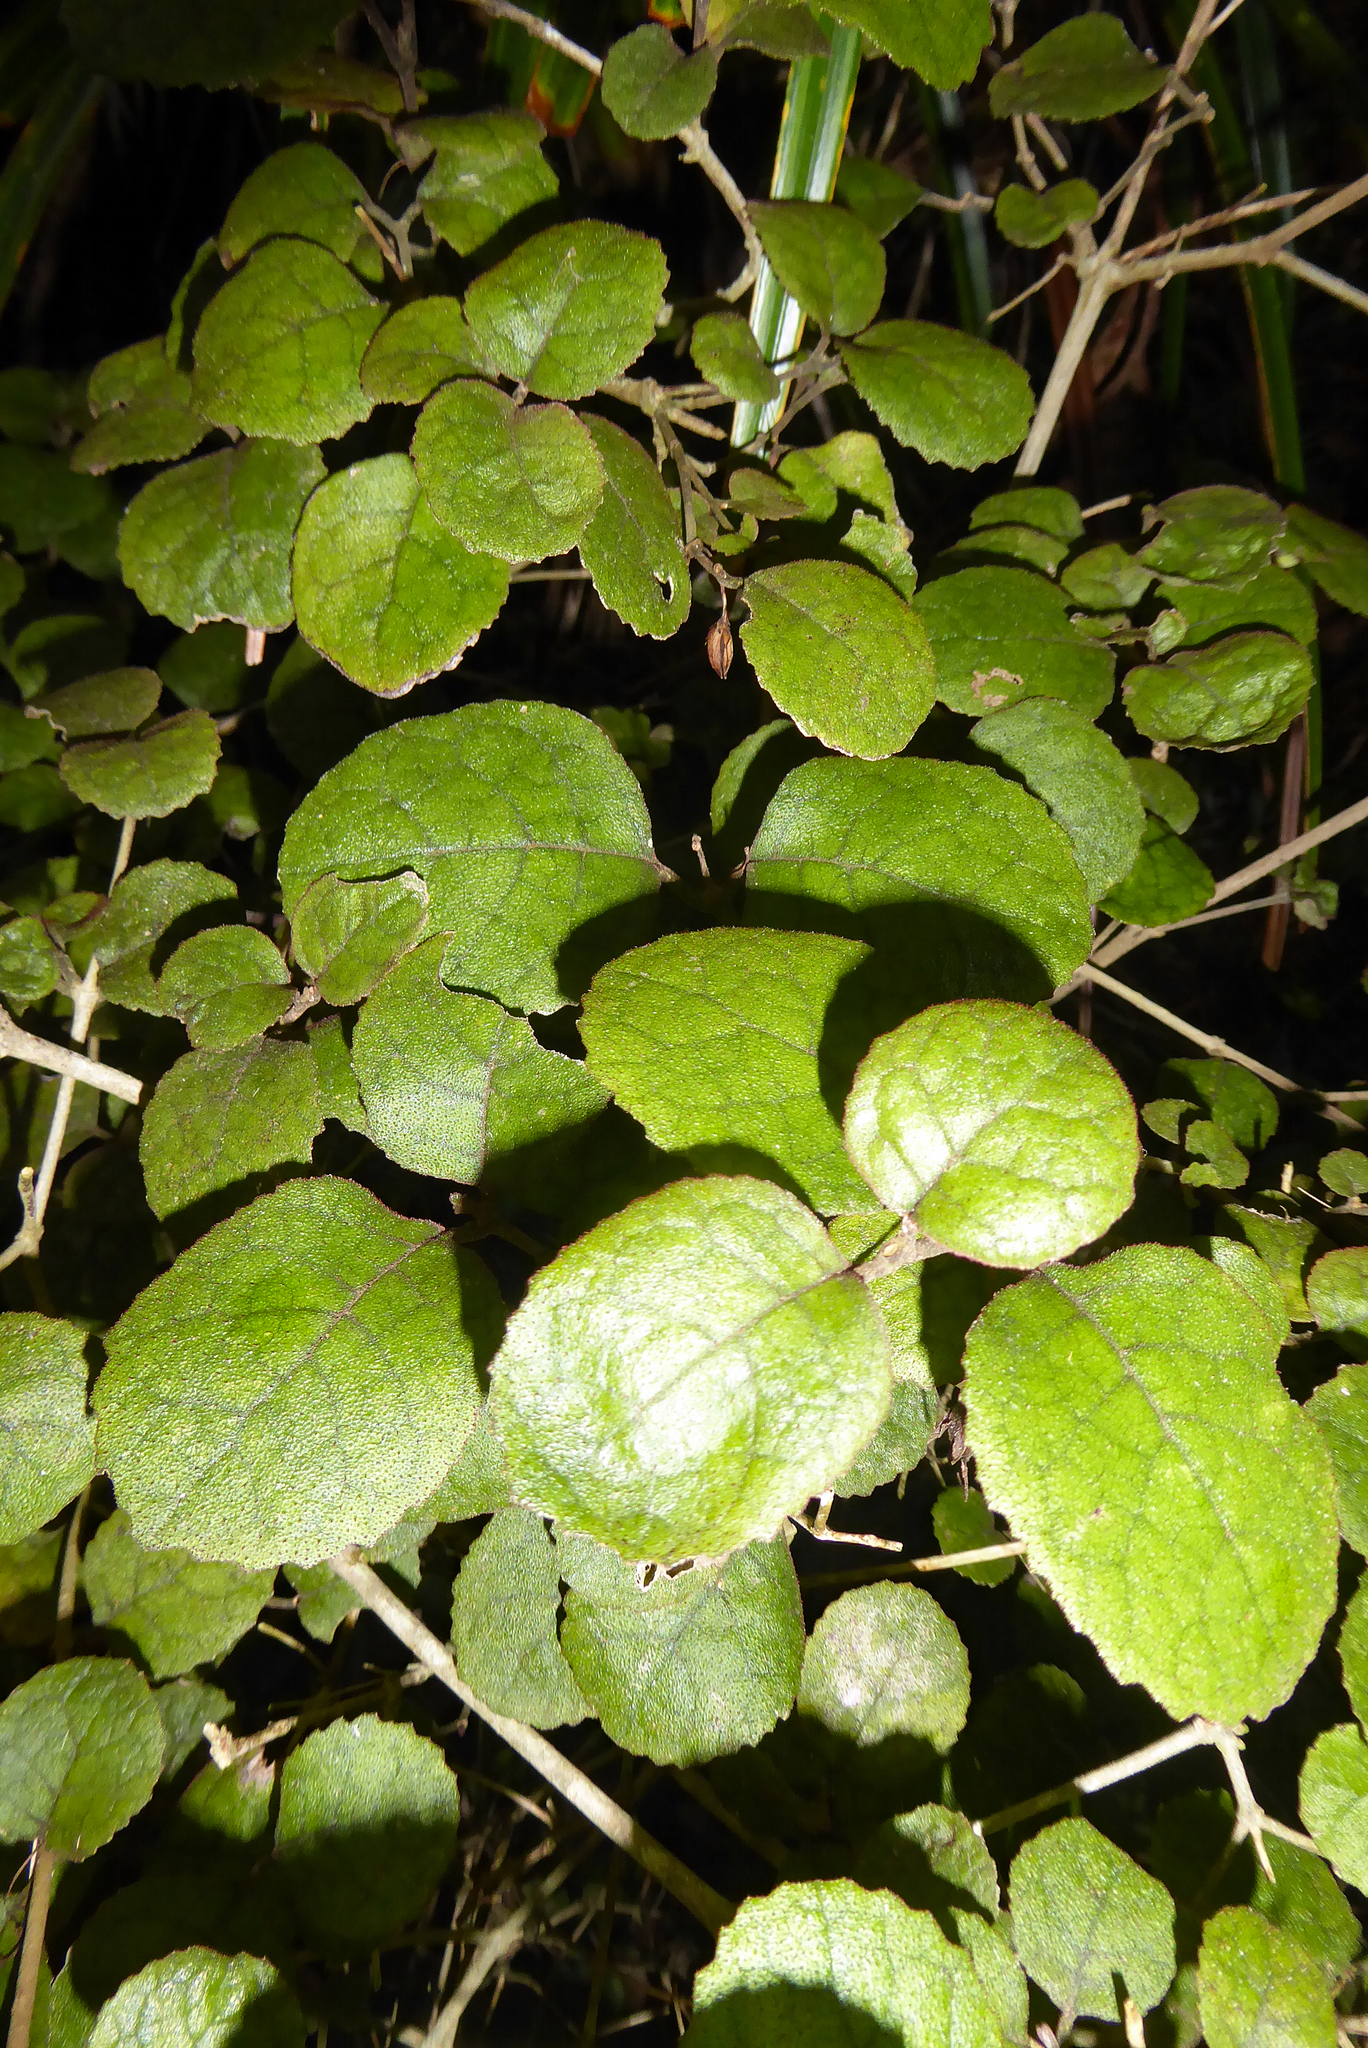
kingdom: Plantae
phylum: Tracheophyta
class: Magnoliopsida
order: Lamiales
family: Gesneriaceae
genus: Rhabdothamnus
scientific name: Rhabdothamnus solandri
